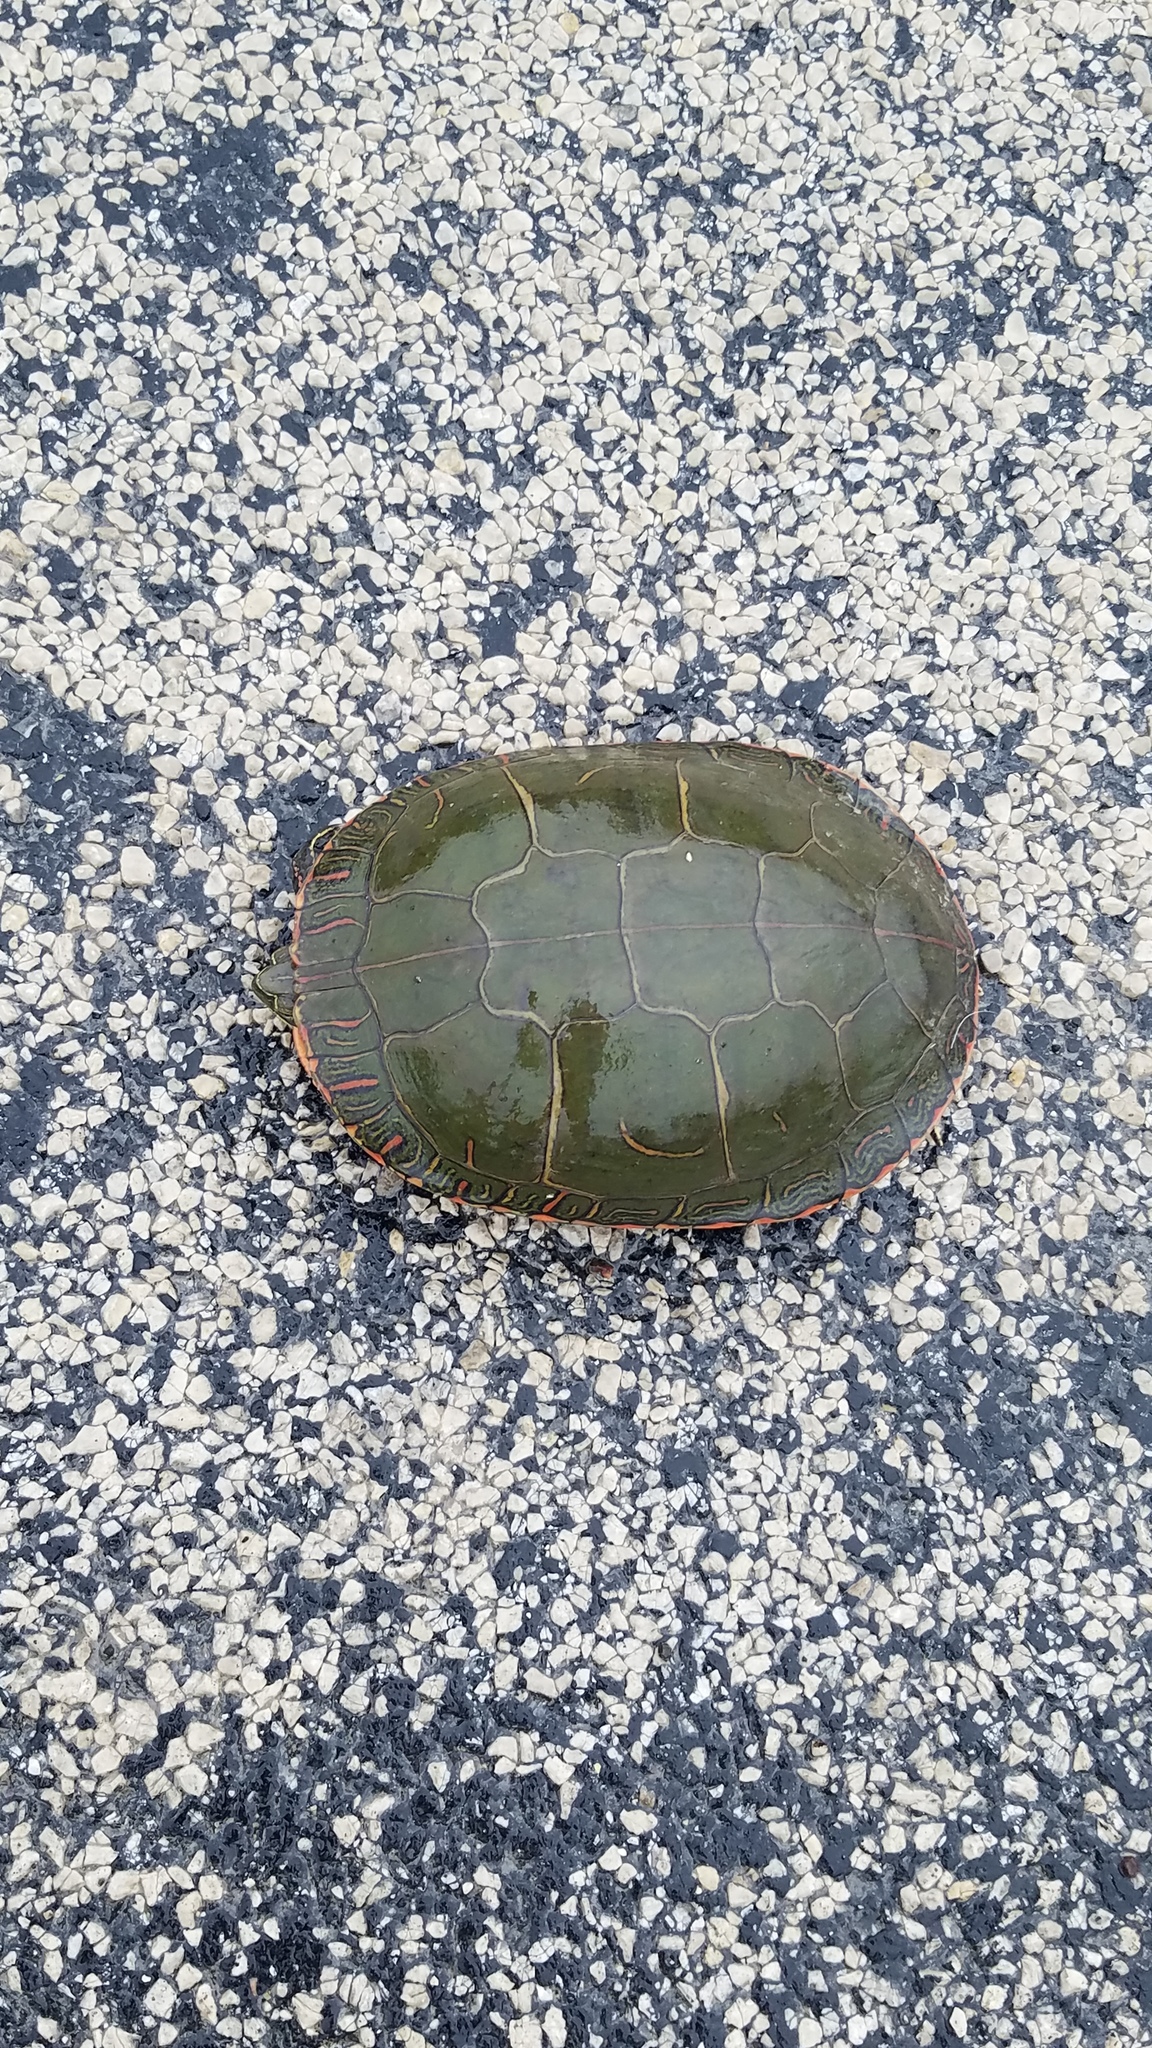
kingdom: Animalia
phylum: Chordata
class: Testudines
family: Emydidae
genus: Chrysemys
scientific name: Chrysemys picta
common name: Painted turtle
